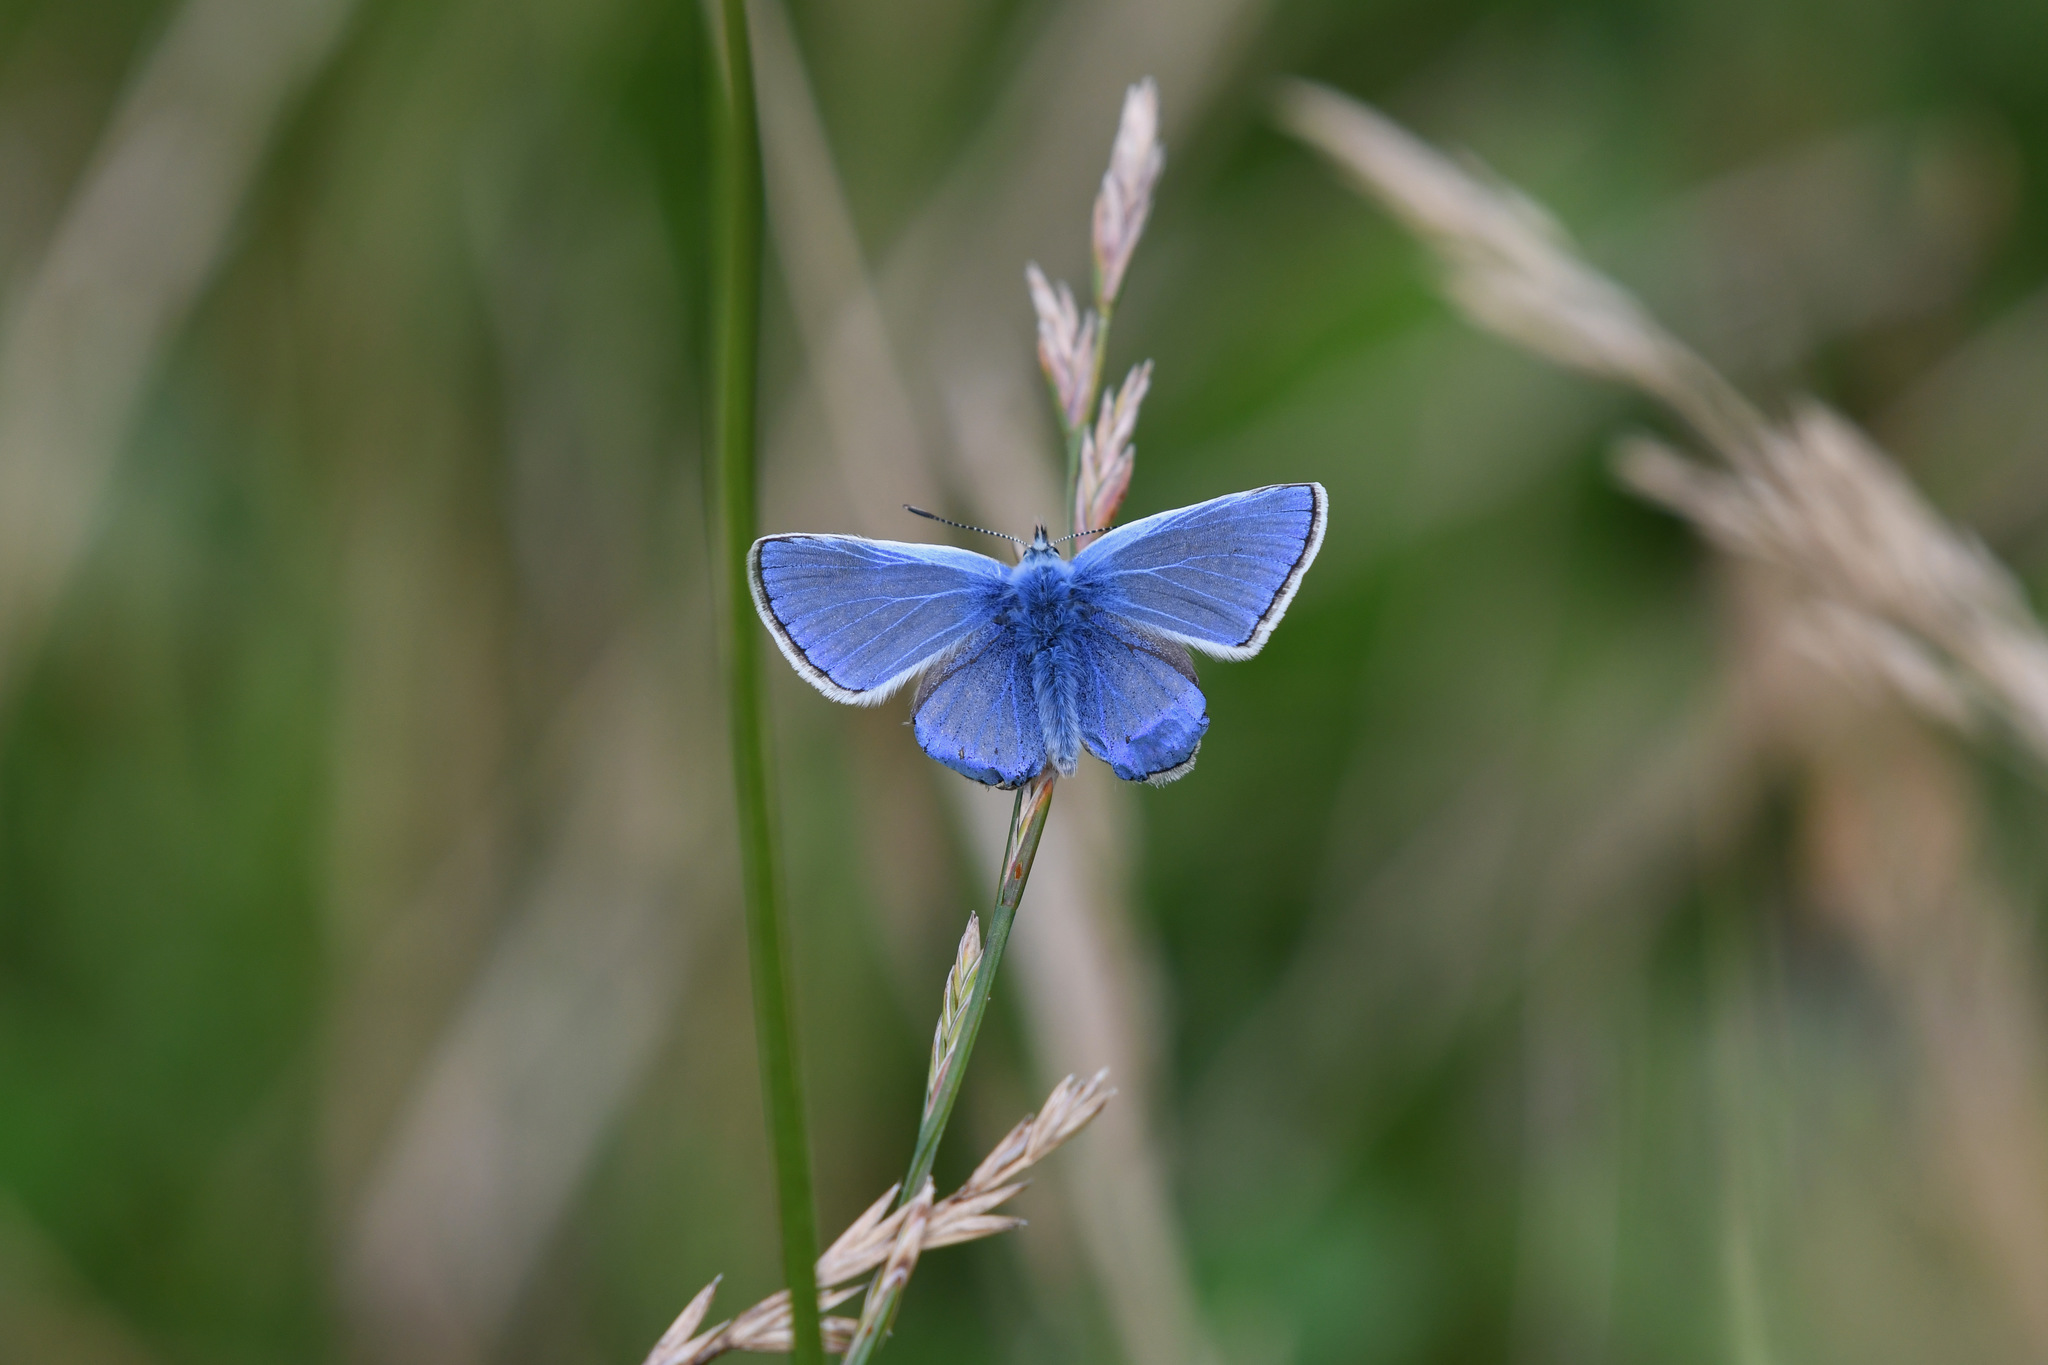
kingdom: Animalia
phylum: Arthropoda
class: Insecta
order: Lepidoptera
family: Lycaenidae
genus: Polyommatus
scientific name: Polyommatus icarus
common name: Common blue
